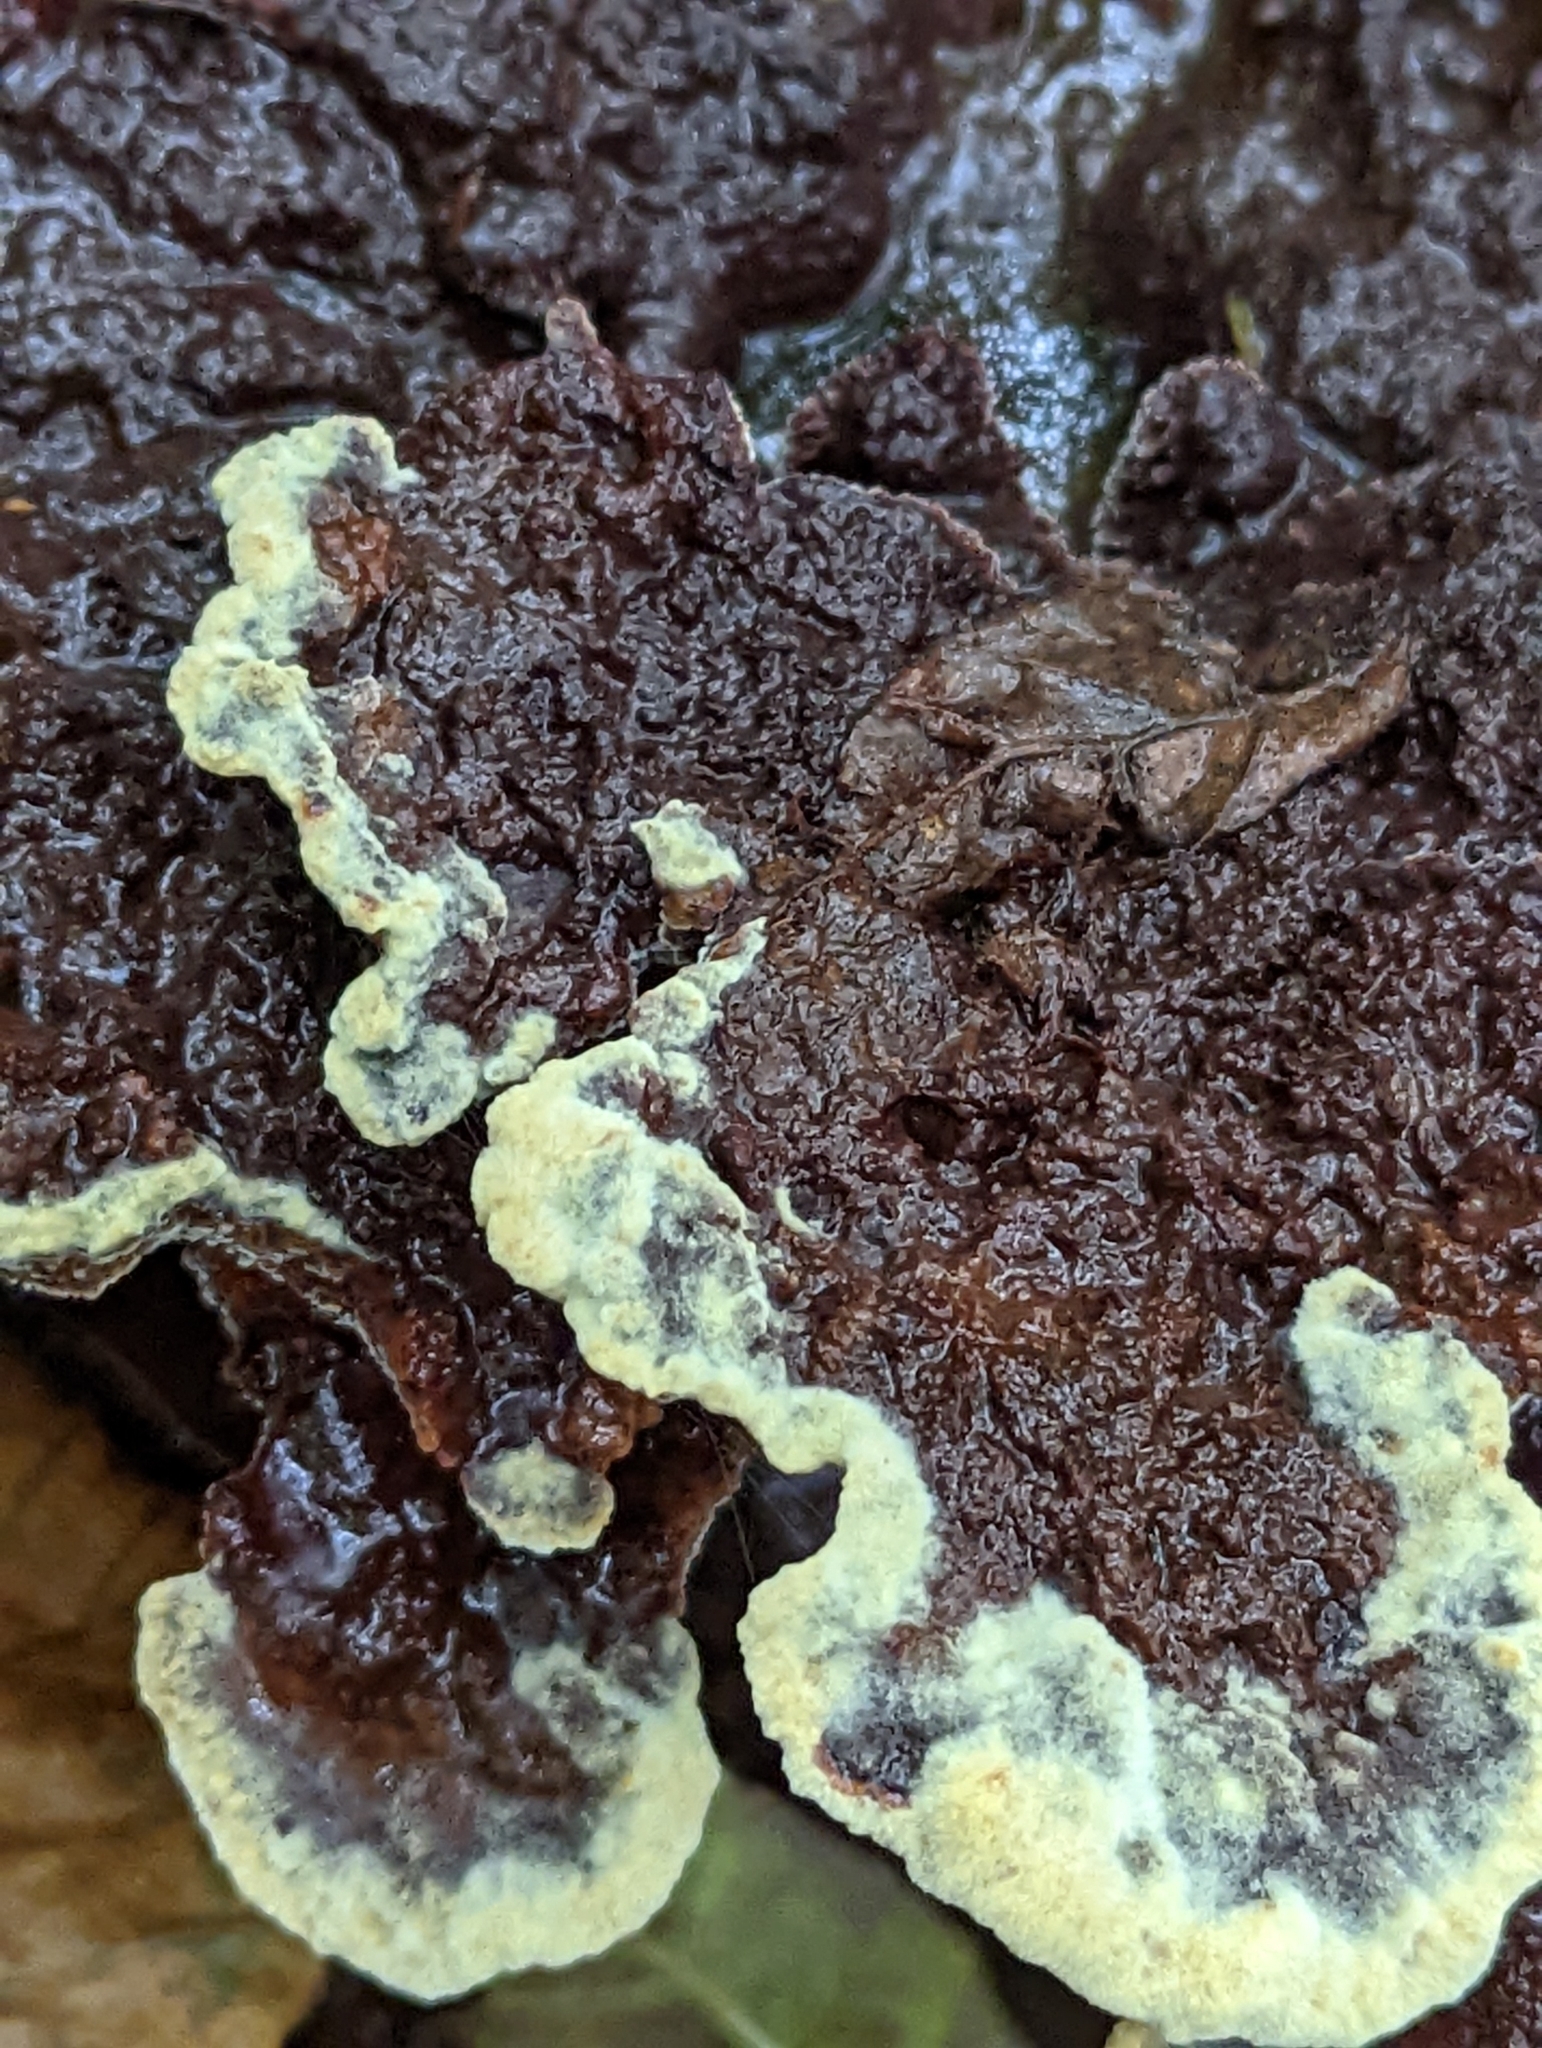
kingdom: Fungi
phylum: Basidiomycota
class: Agaricomycetes
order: Polyporales
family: Laetiporaceae
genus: Phaeolus
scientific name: Phaeolus schweinitzii
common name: Dyer's mazegill
